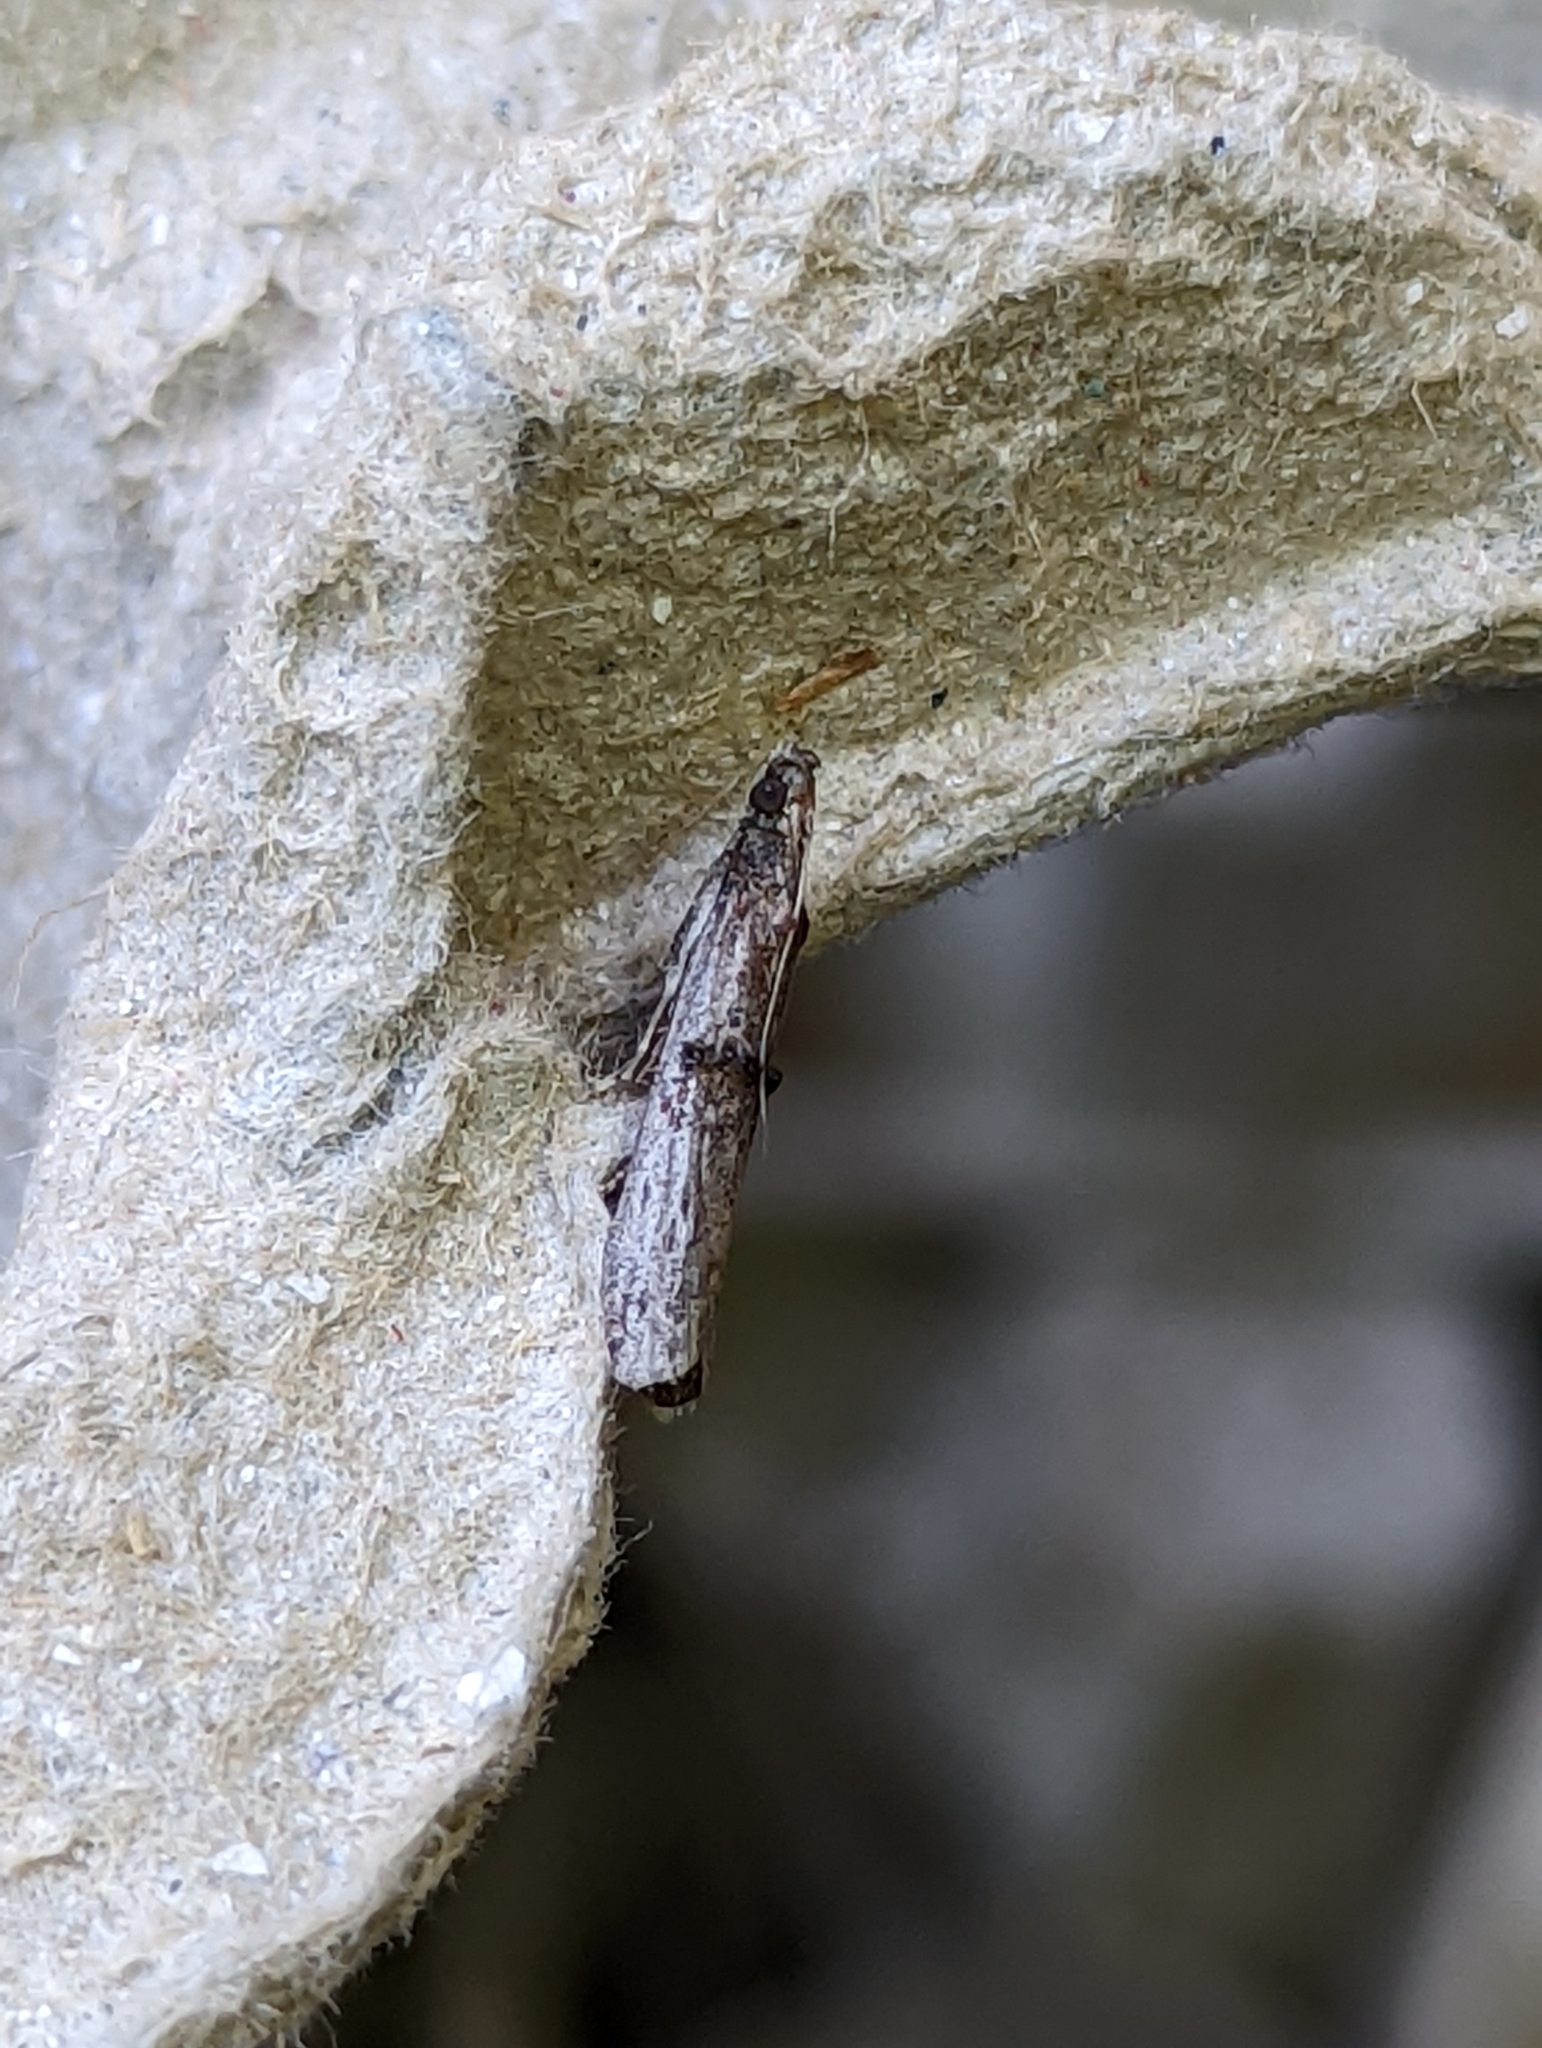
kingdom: Animalia
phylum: Arthropoda
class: Insecta
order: Lepidoptera
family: Pyralidae
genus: Nephopterix
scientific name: Nephopterix angustella
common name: Spindle knot-horn
